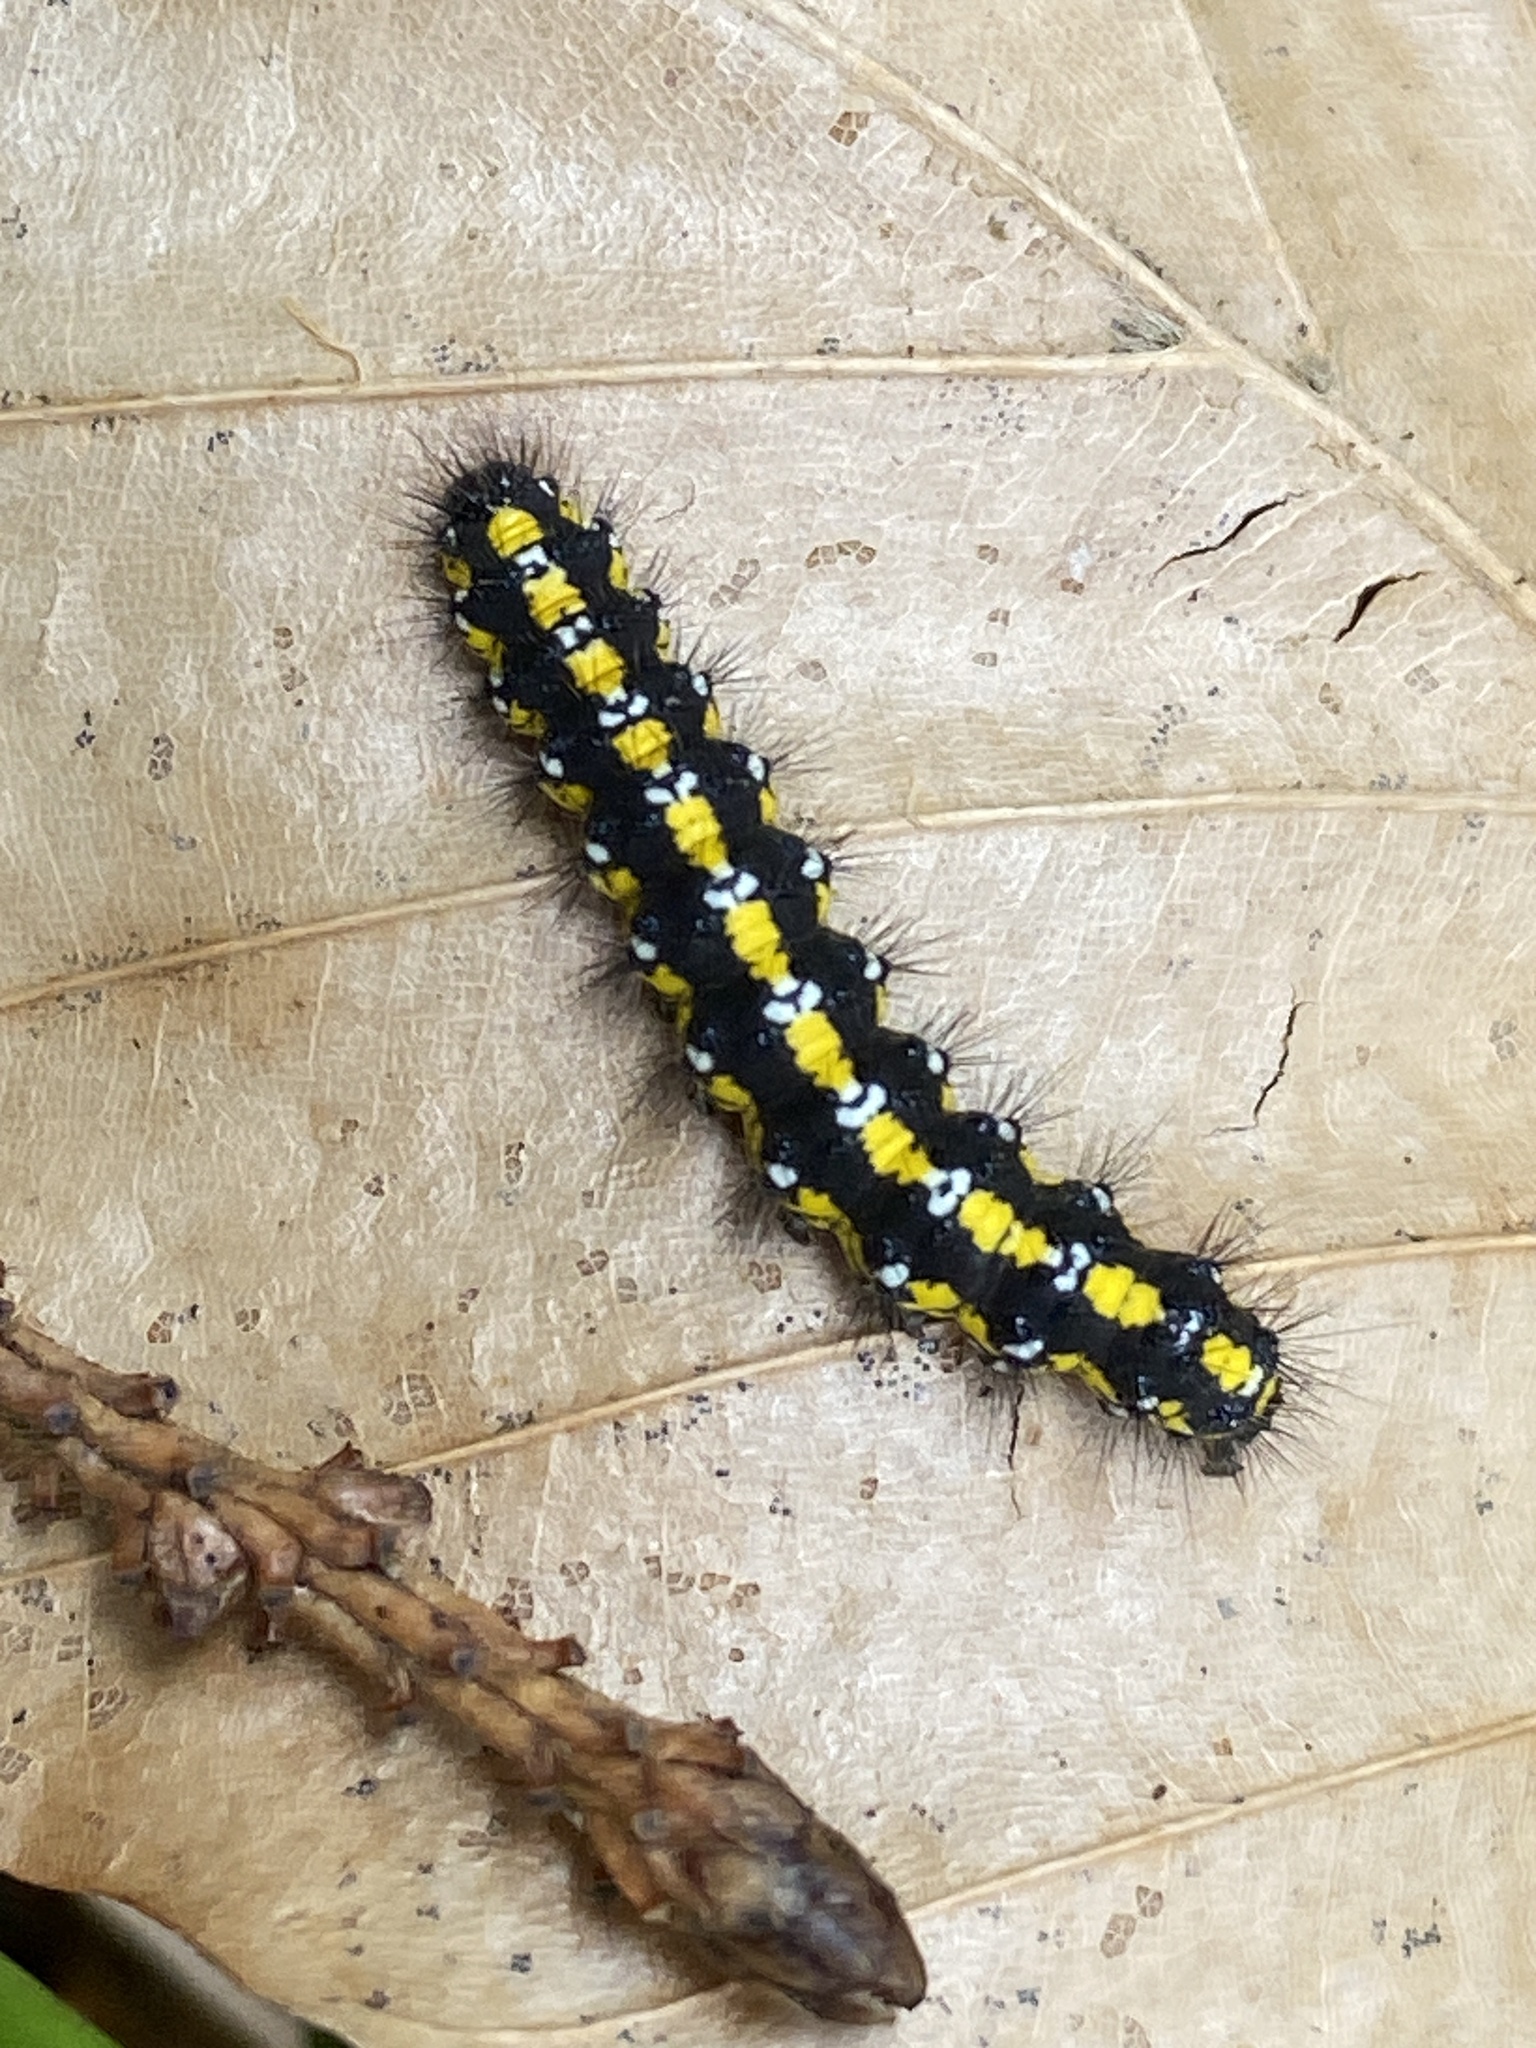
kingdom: Animalia
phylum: Arthropoda
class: Insecta
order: Lepidoptera
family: Erebidae
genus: Callimorpha
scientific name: Callimorpha dominula
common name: Scarlet tiger
